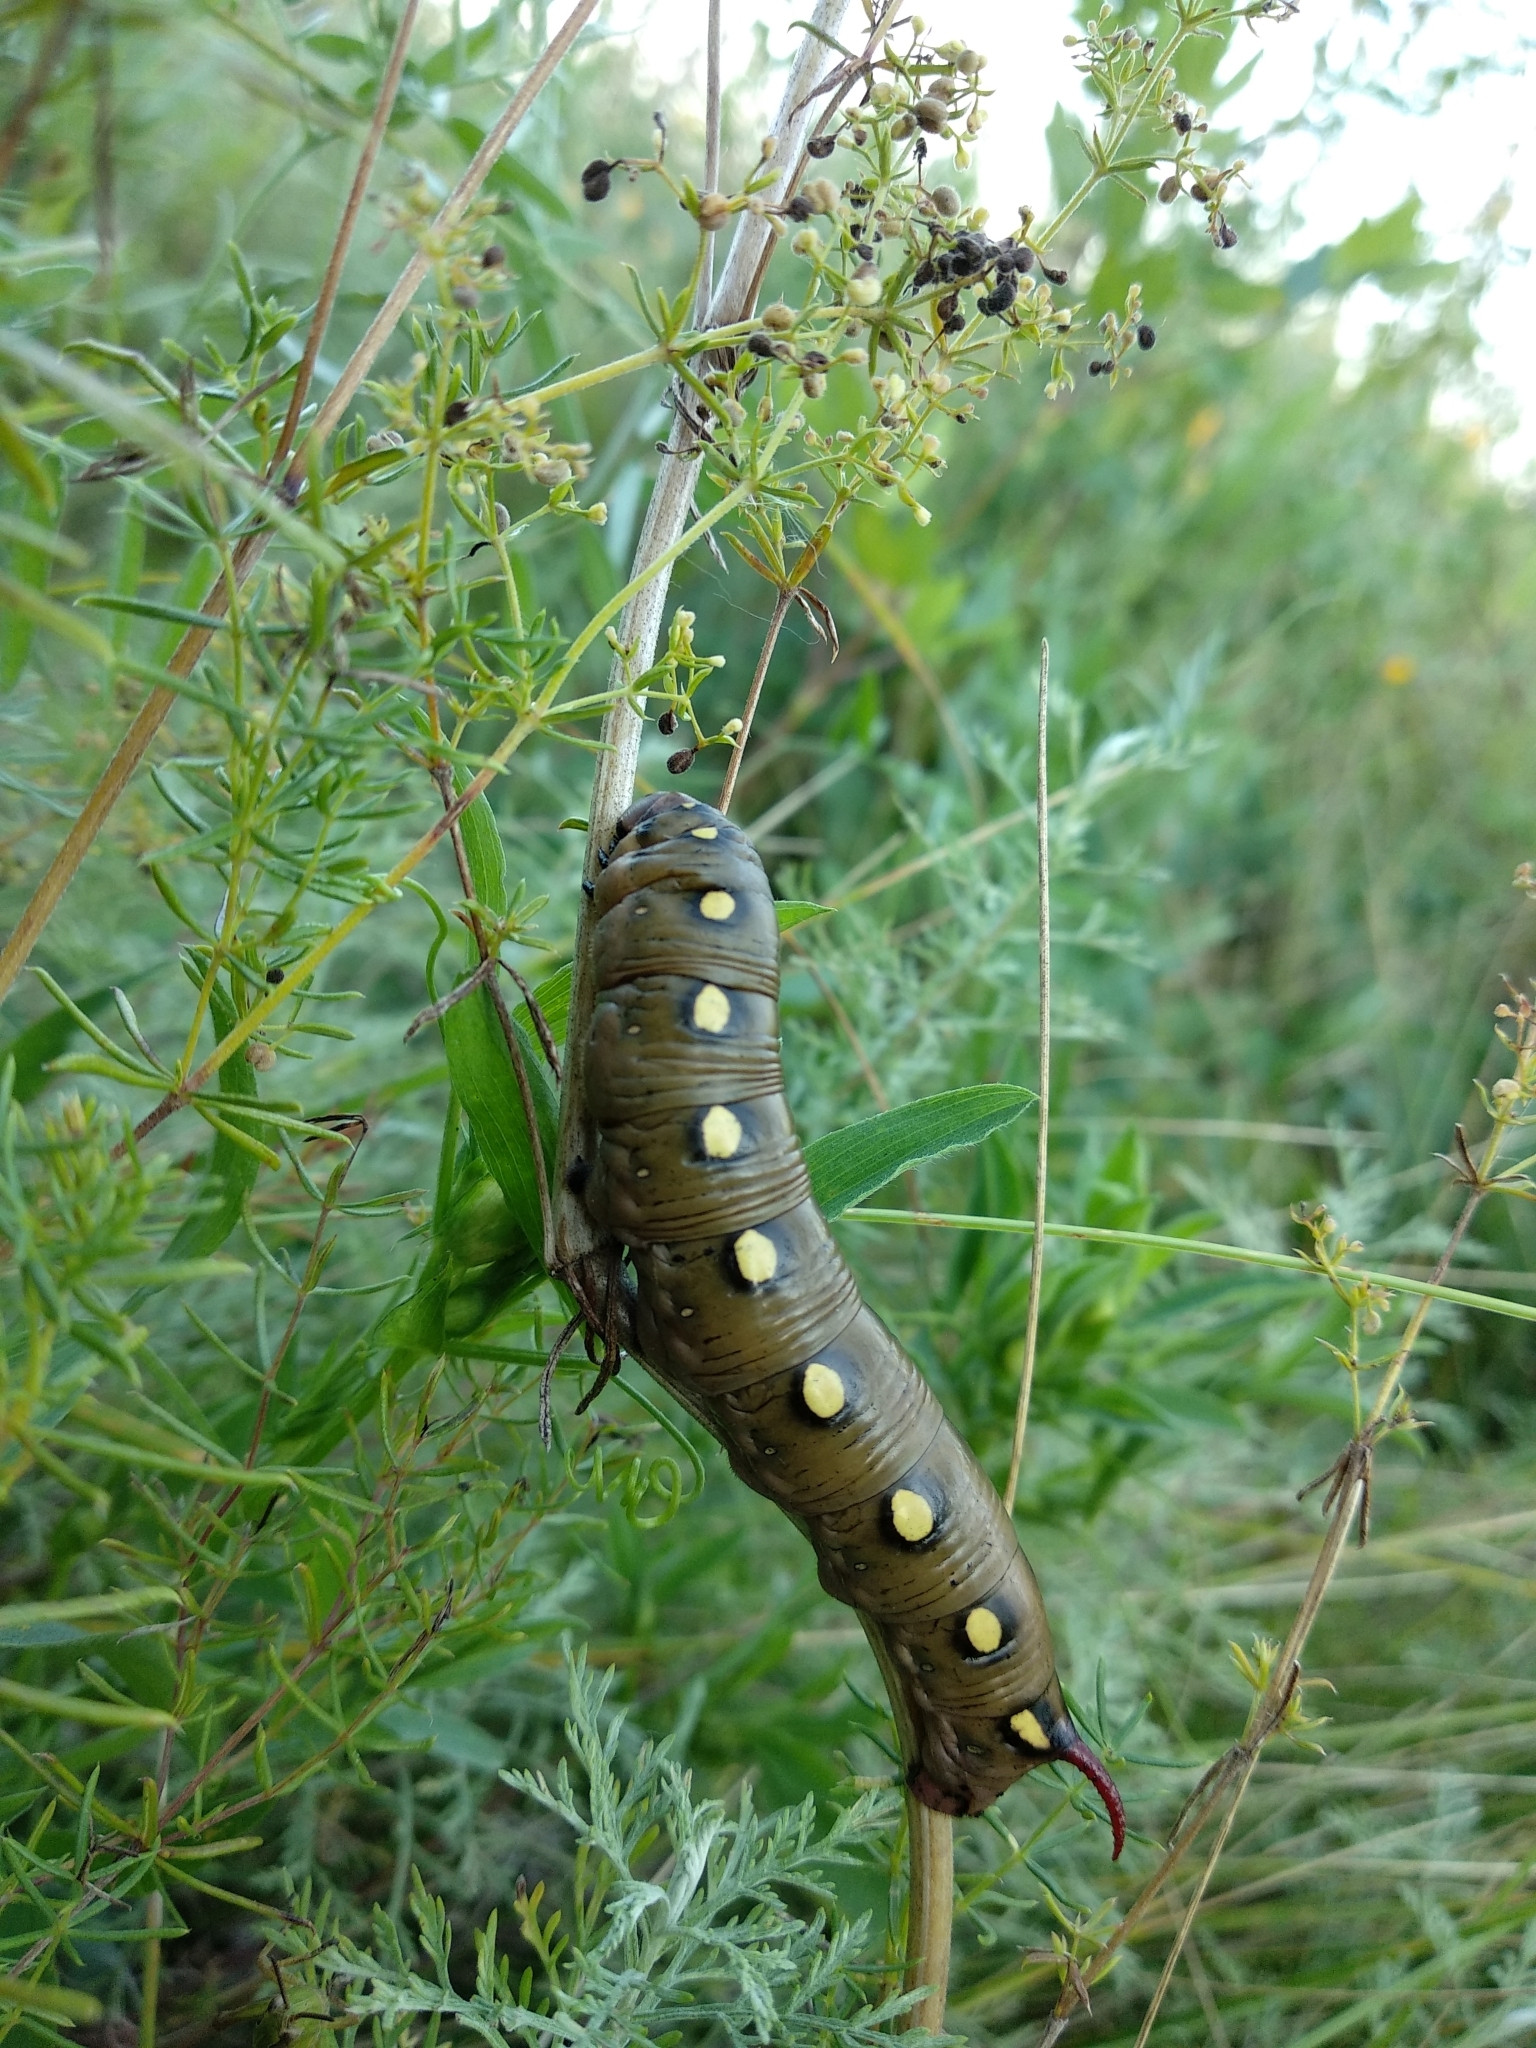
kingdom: Animalia
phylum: Arthropoda
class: Insecta
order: Lepidoptera
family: Sphingidae
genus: Hyles
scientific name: Hyles gallii
